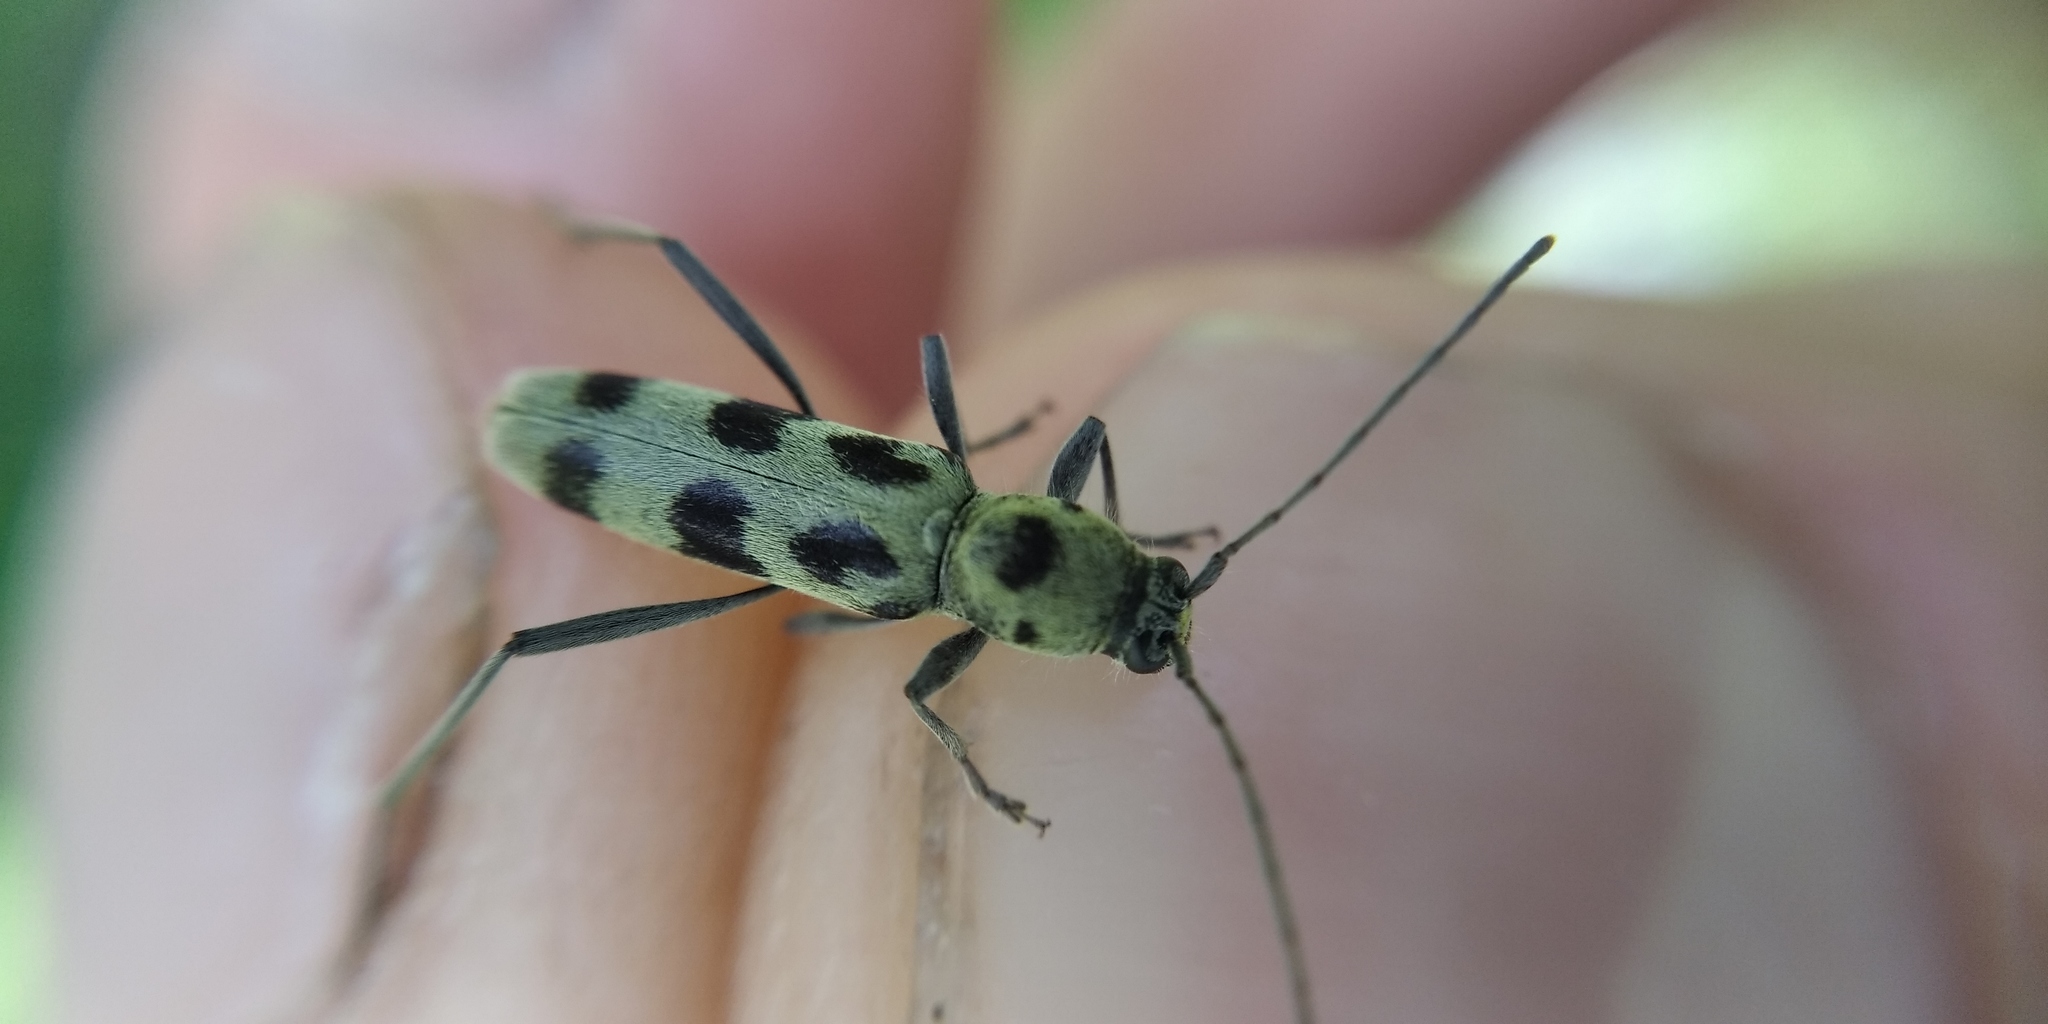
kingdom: Animalia
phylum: Arthropoda
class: Insecta
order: Coleoptera
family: Cerambycidae
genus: Chlorophorus
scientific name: Chlorophorus herbstii
